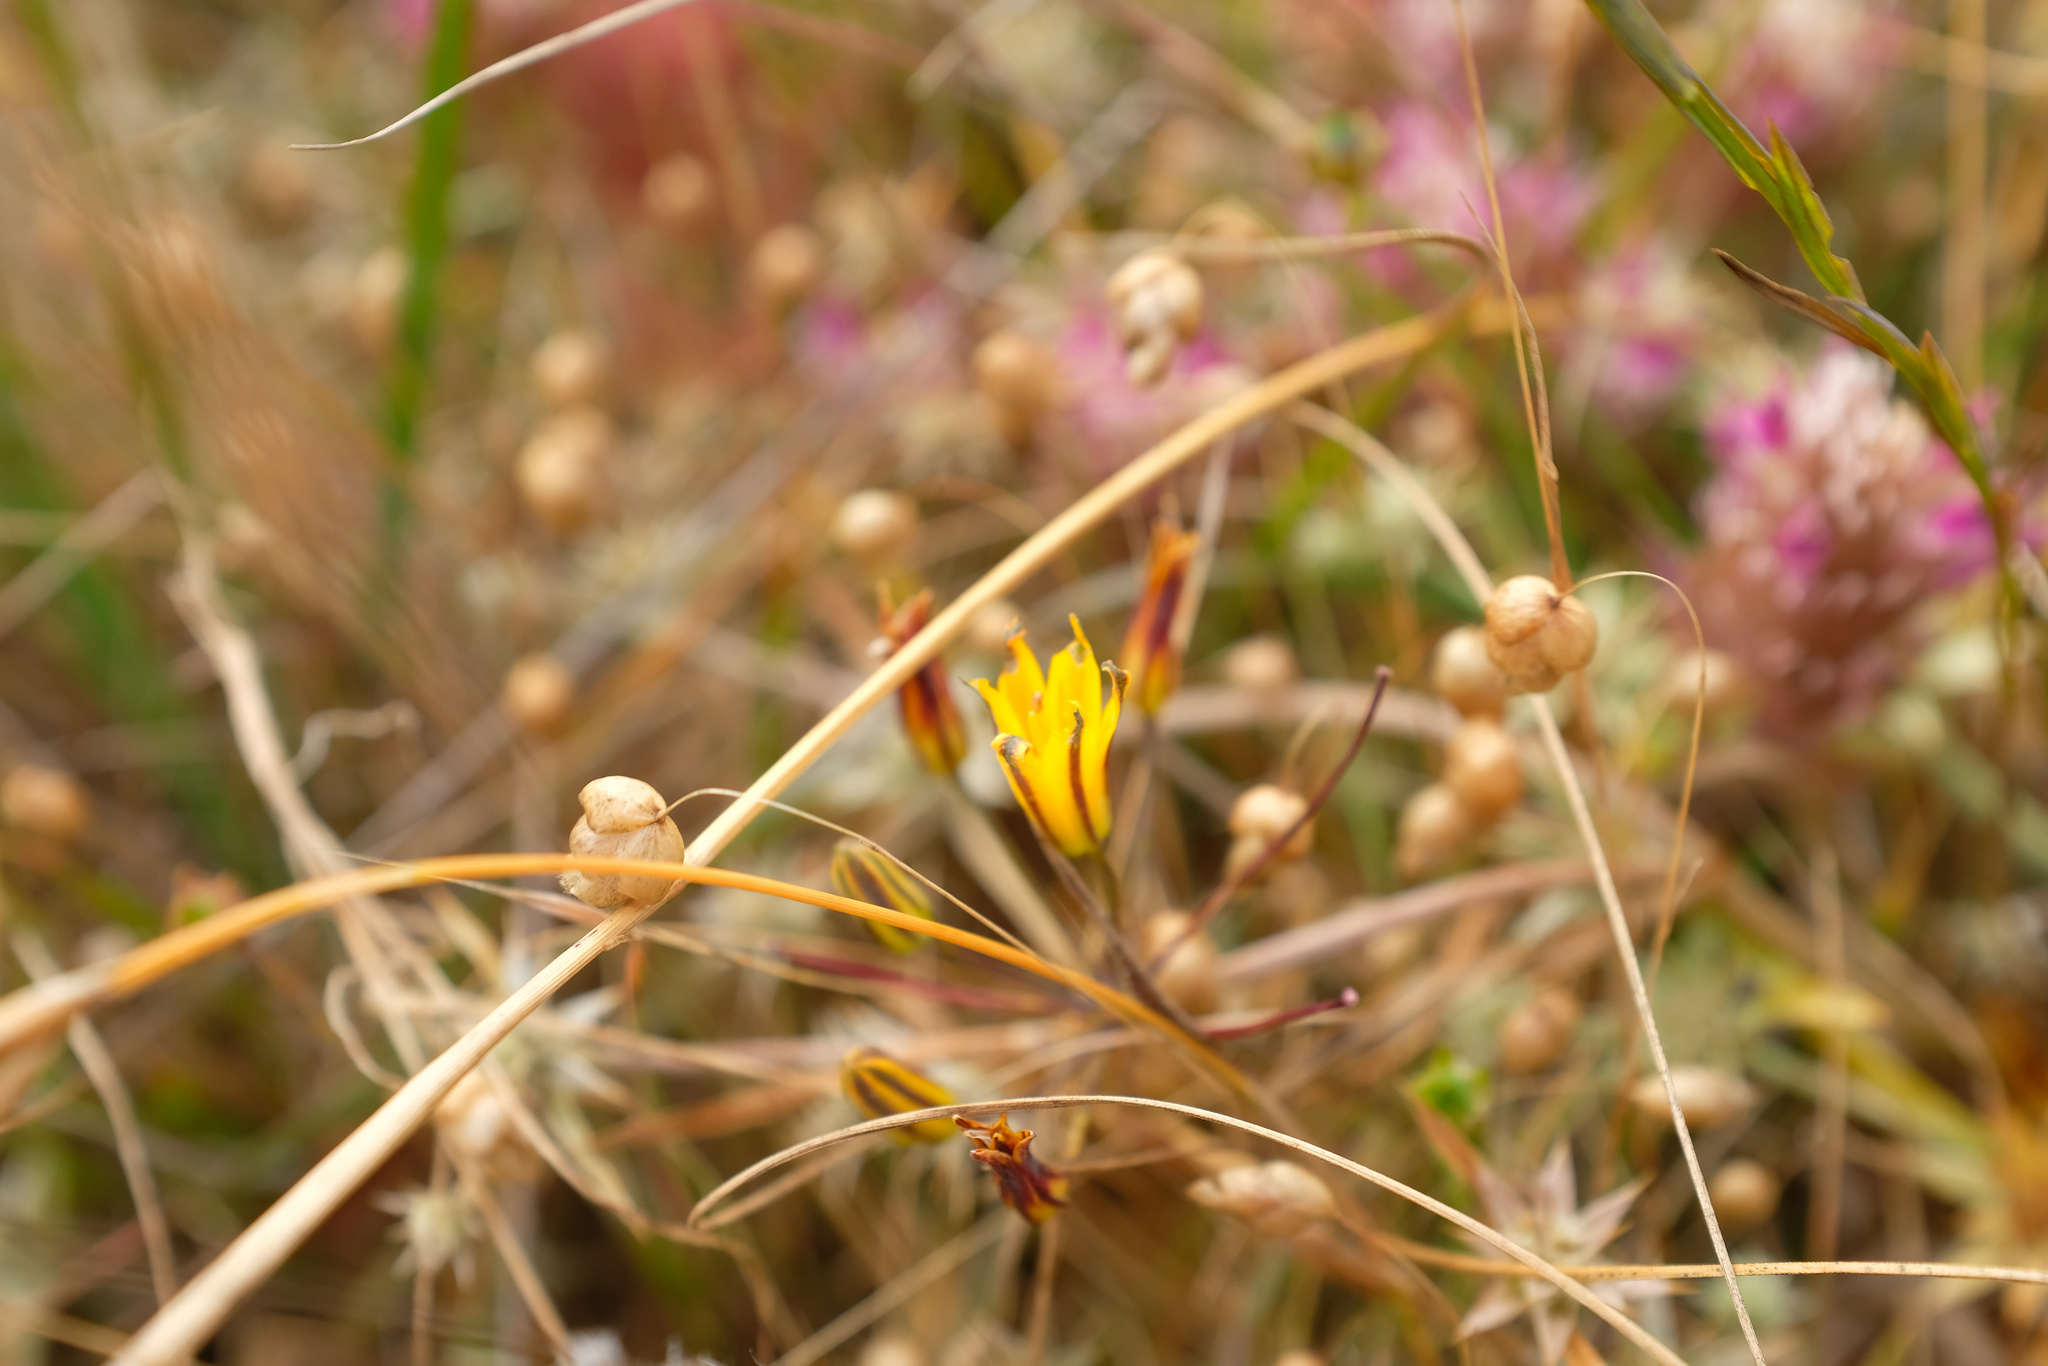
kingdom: Plantae
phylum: Tracheophyta
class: Liliopsida
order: Asparagales
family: Asparagaceae
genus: Bloomeria
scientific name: Bloomeria humilis
